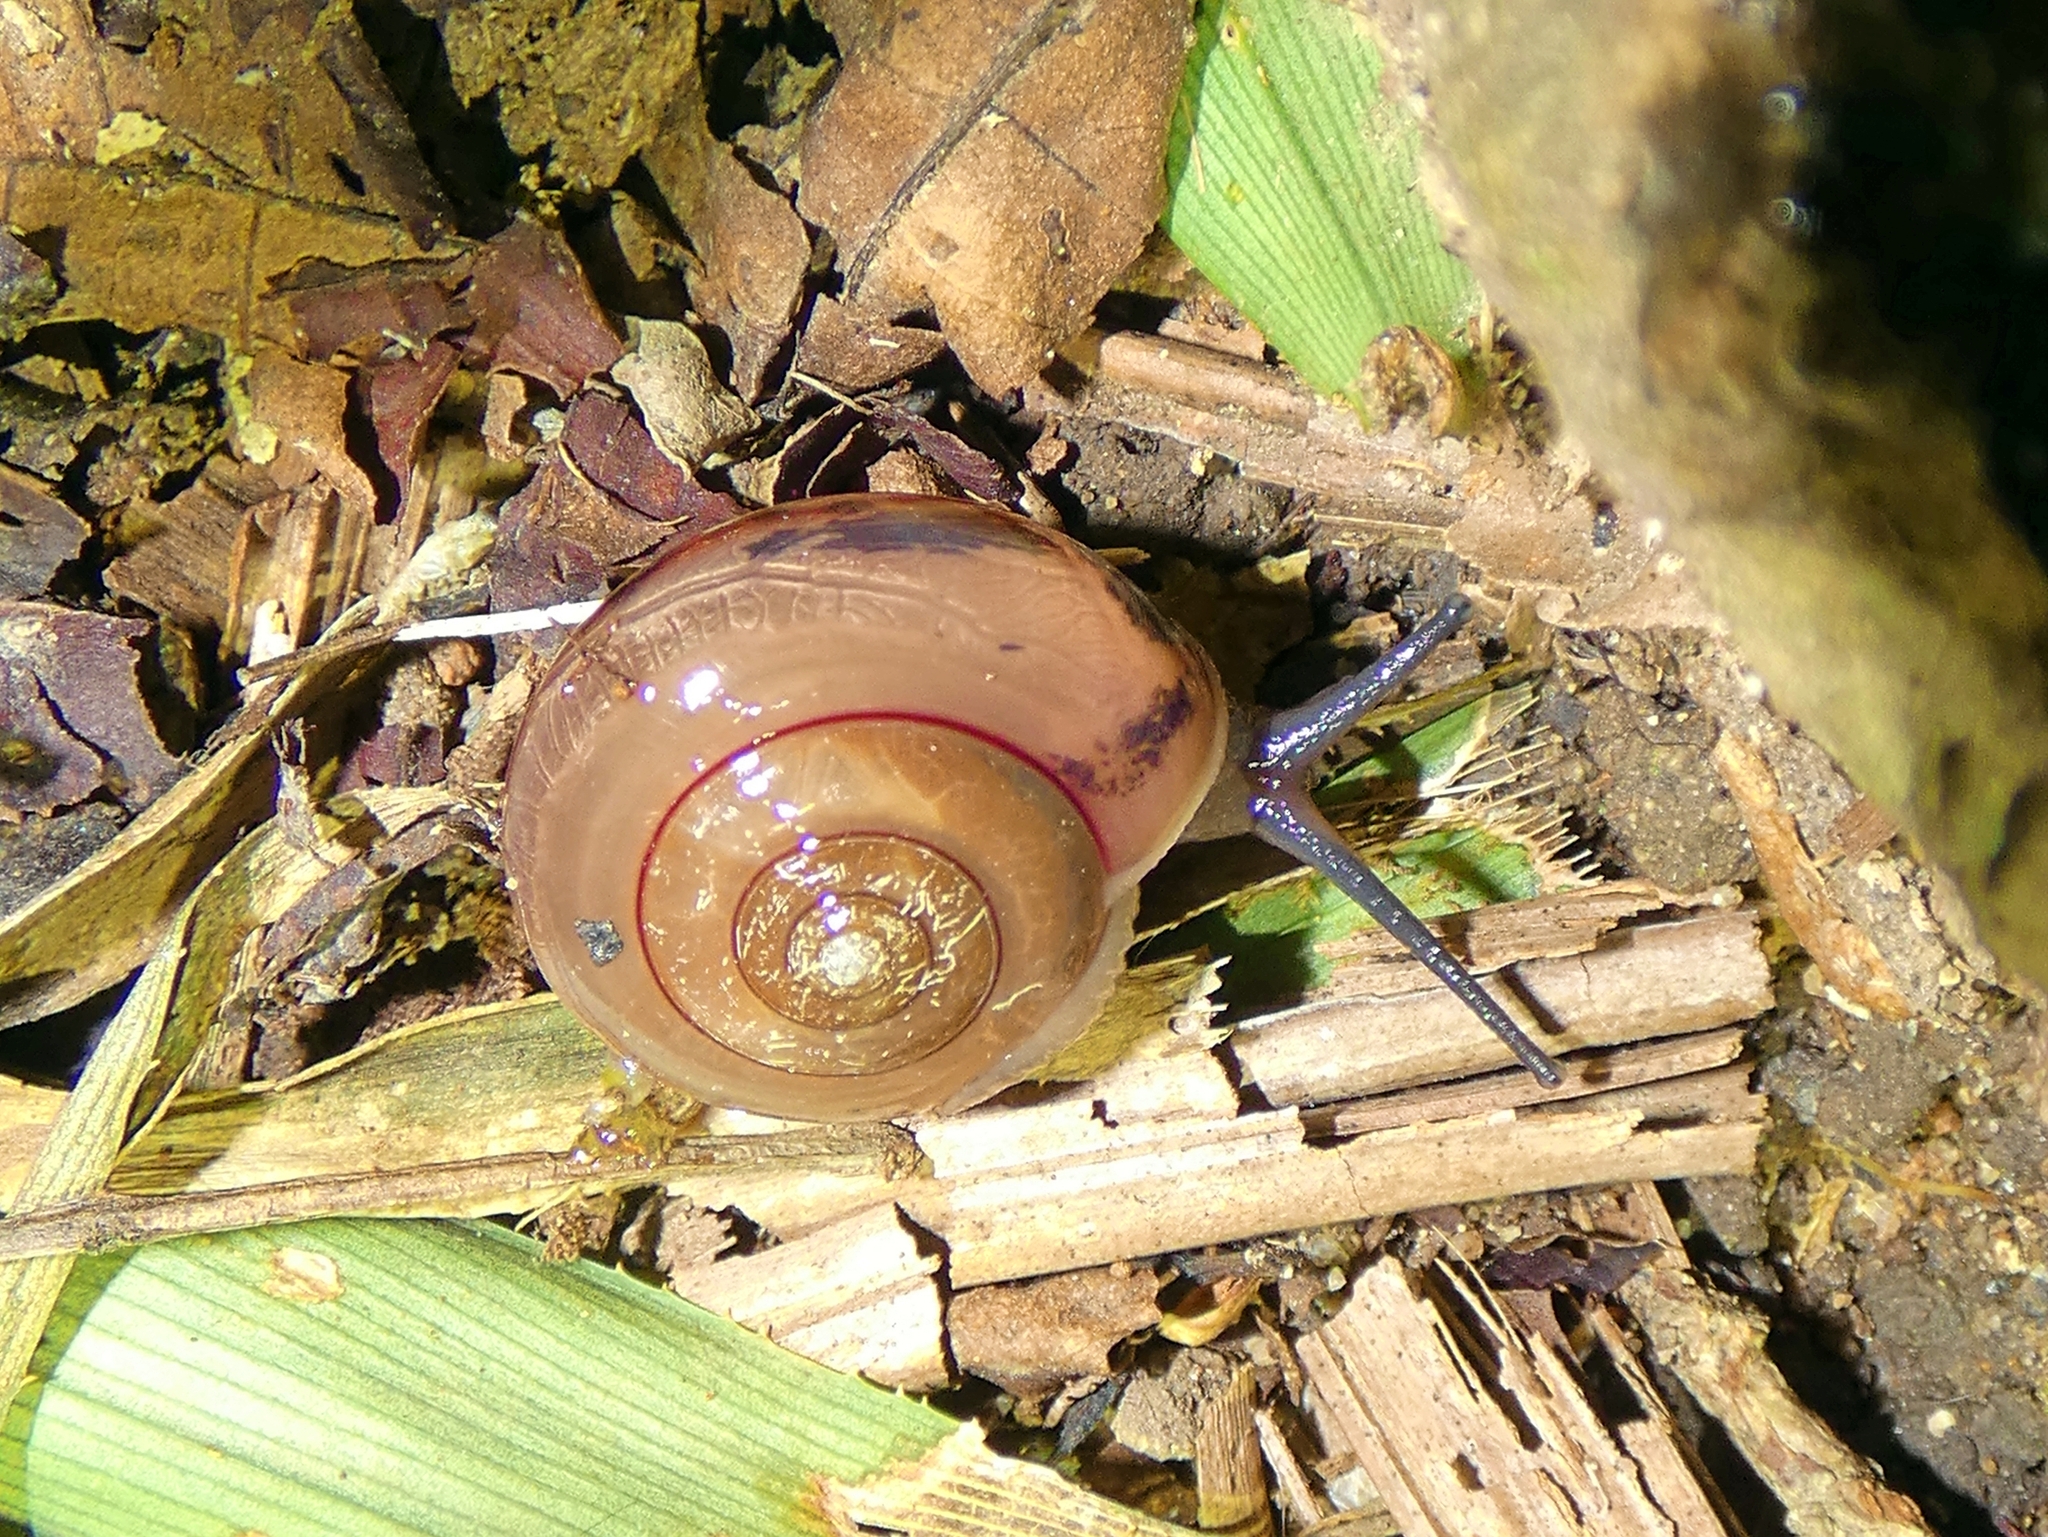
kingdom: Animalia
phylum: Mollusca
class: Gastropoda
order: Stylommatophora
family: Helicarionidae
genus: Pravonitor
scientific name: Pravonitor aquilonius
